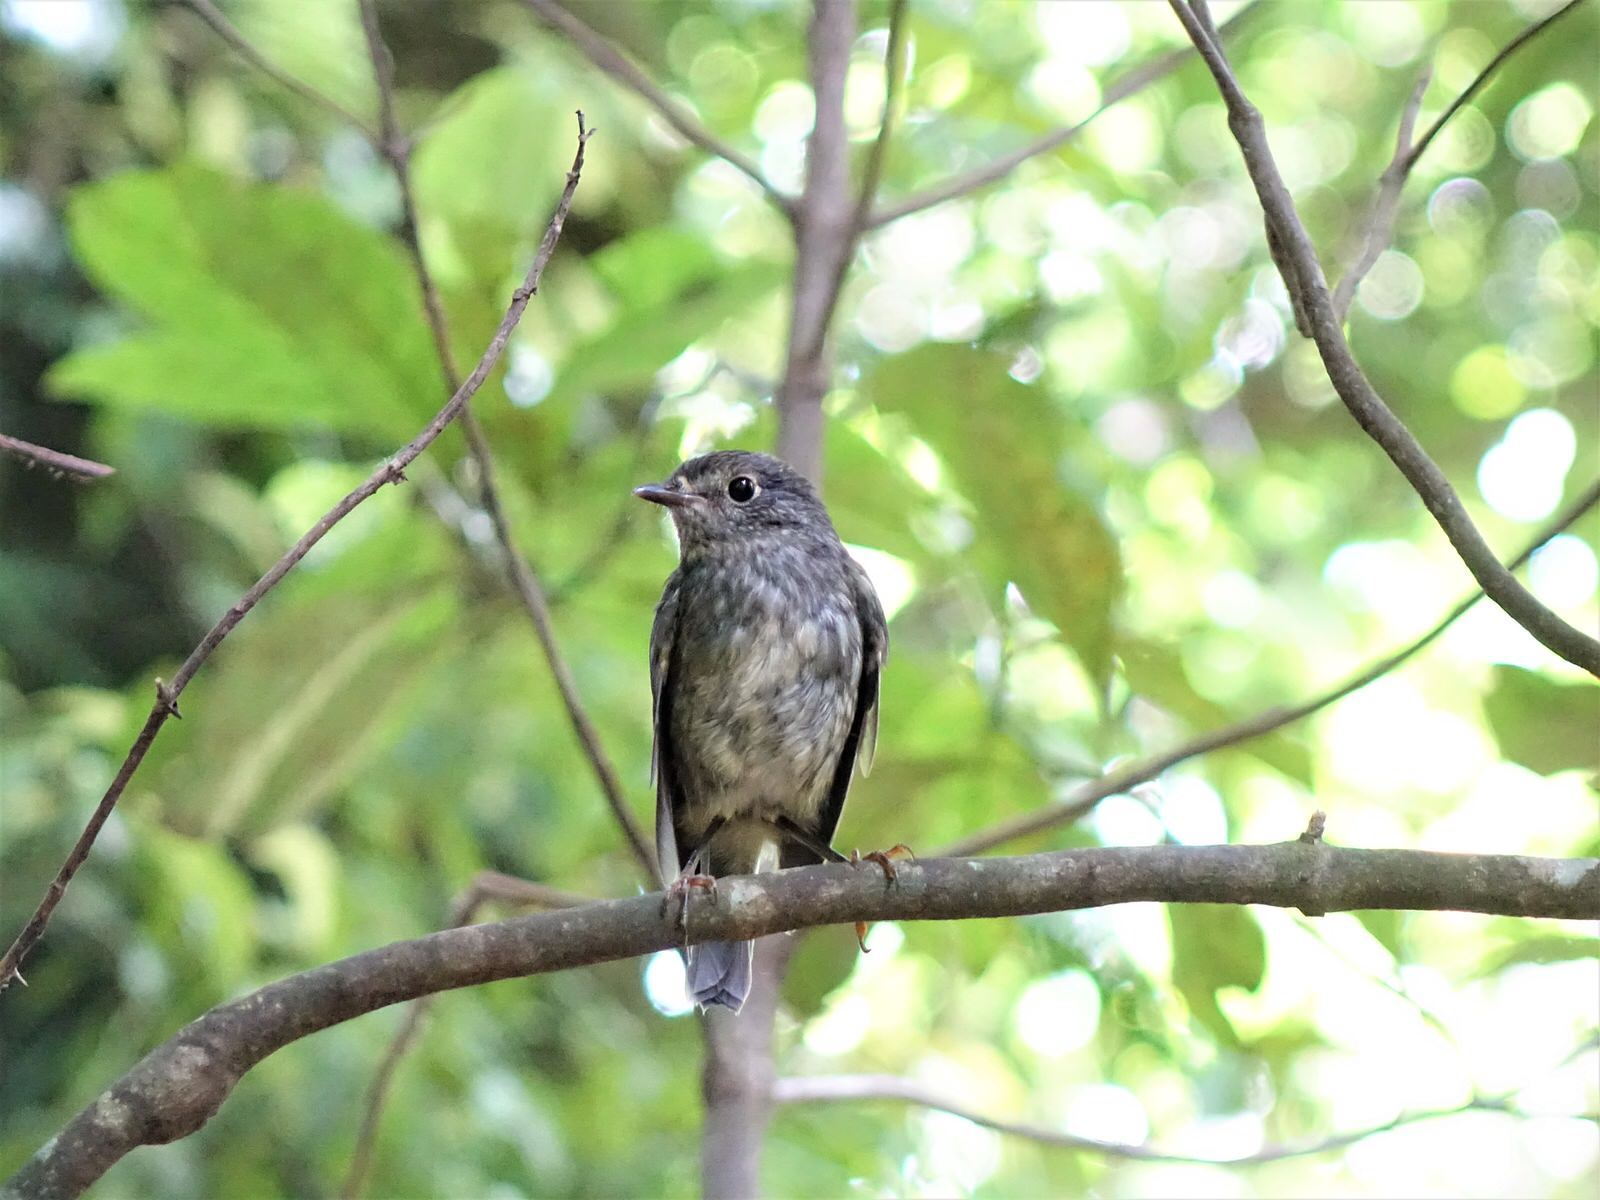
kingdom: Animalia
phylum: Chordata
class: Aves
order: Passeriformes
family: Petroicidae
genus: Petroica
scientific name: Petroica australis
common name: New zealand robin
